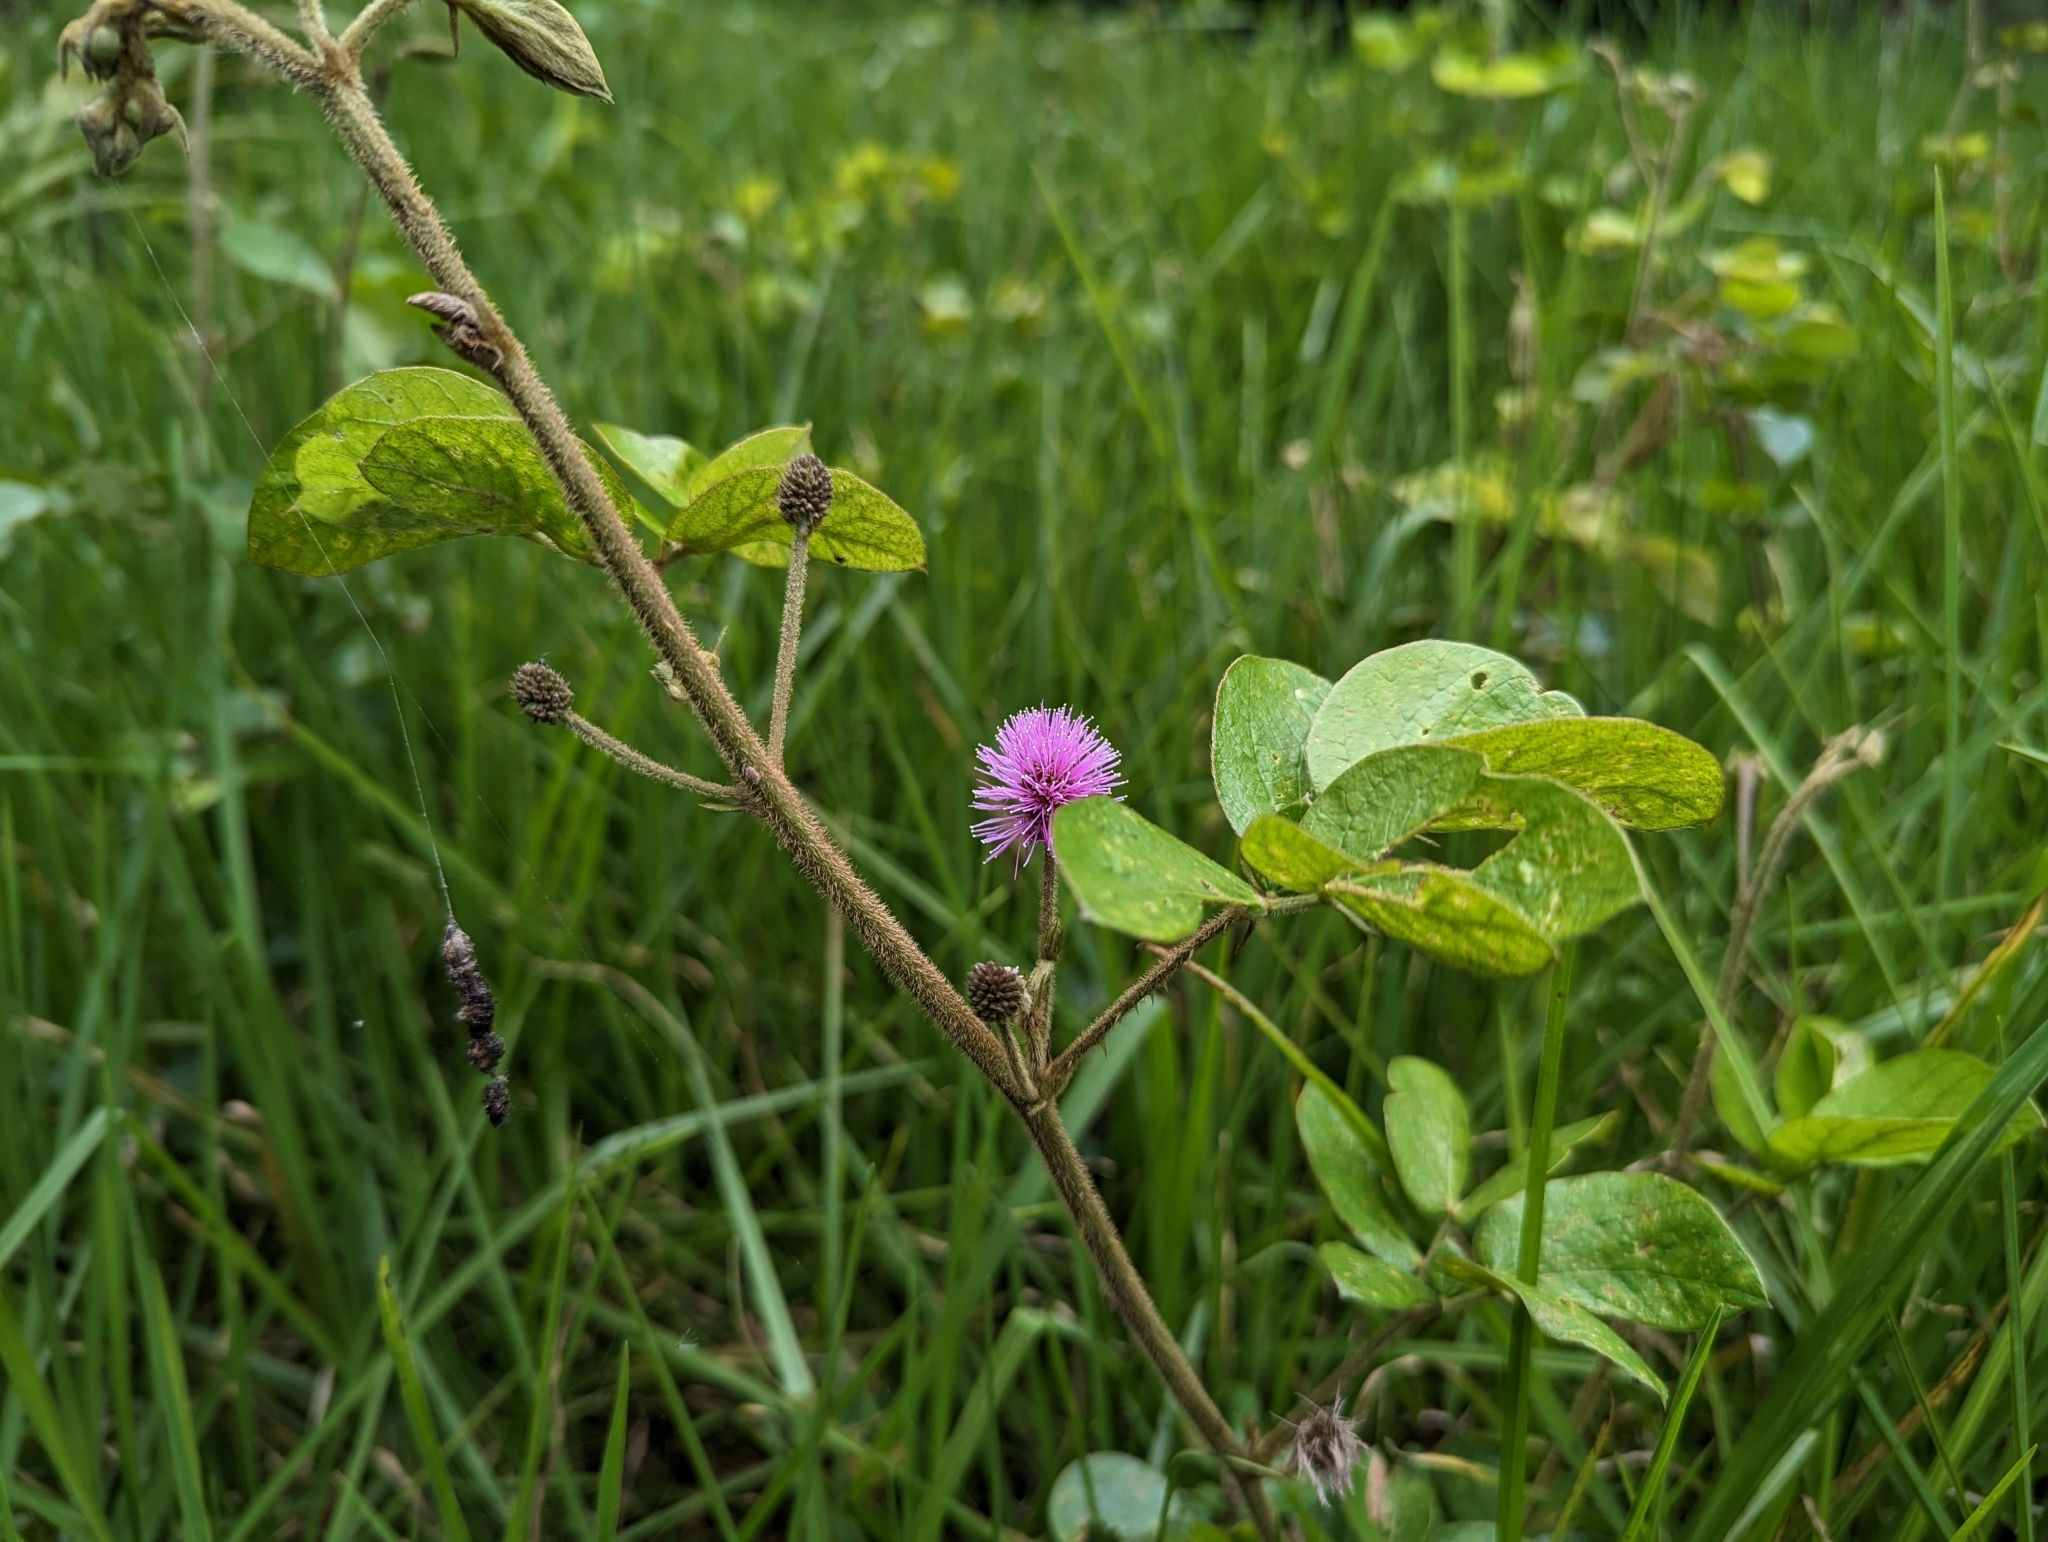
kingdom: Plantae
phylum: Tracheophyta
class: Magnoliopsida
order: Fabales
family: Fabaceae
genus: Mimosa
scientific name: Mimosa albida
